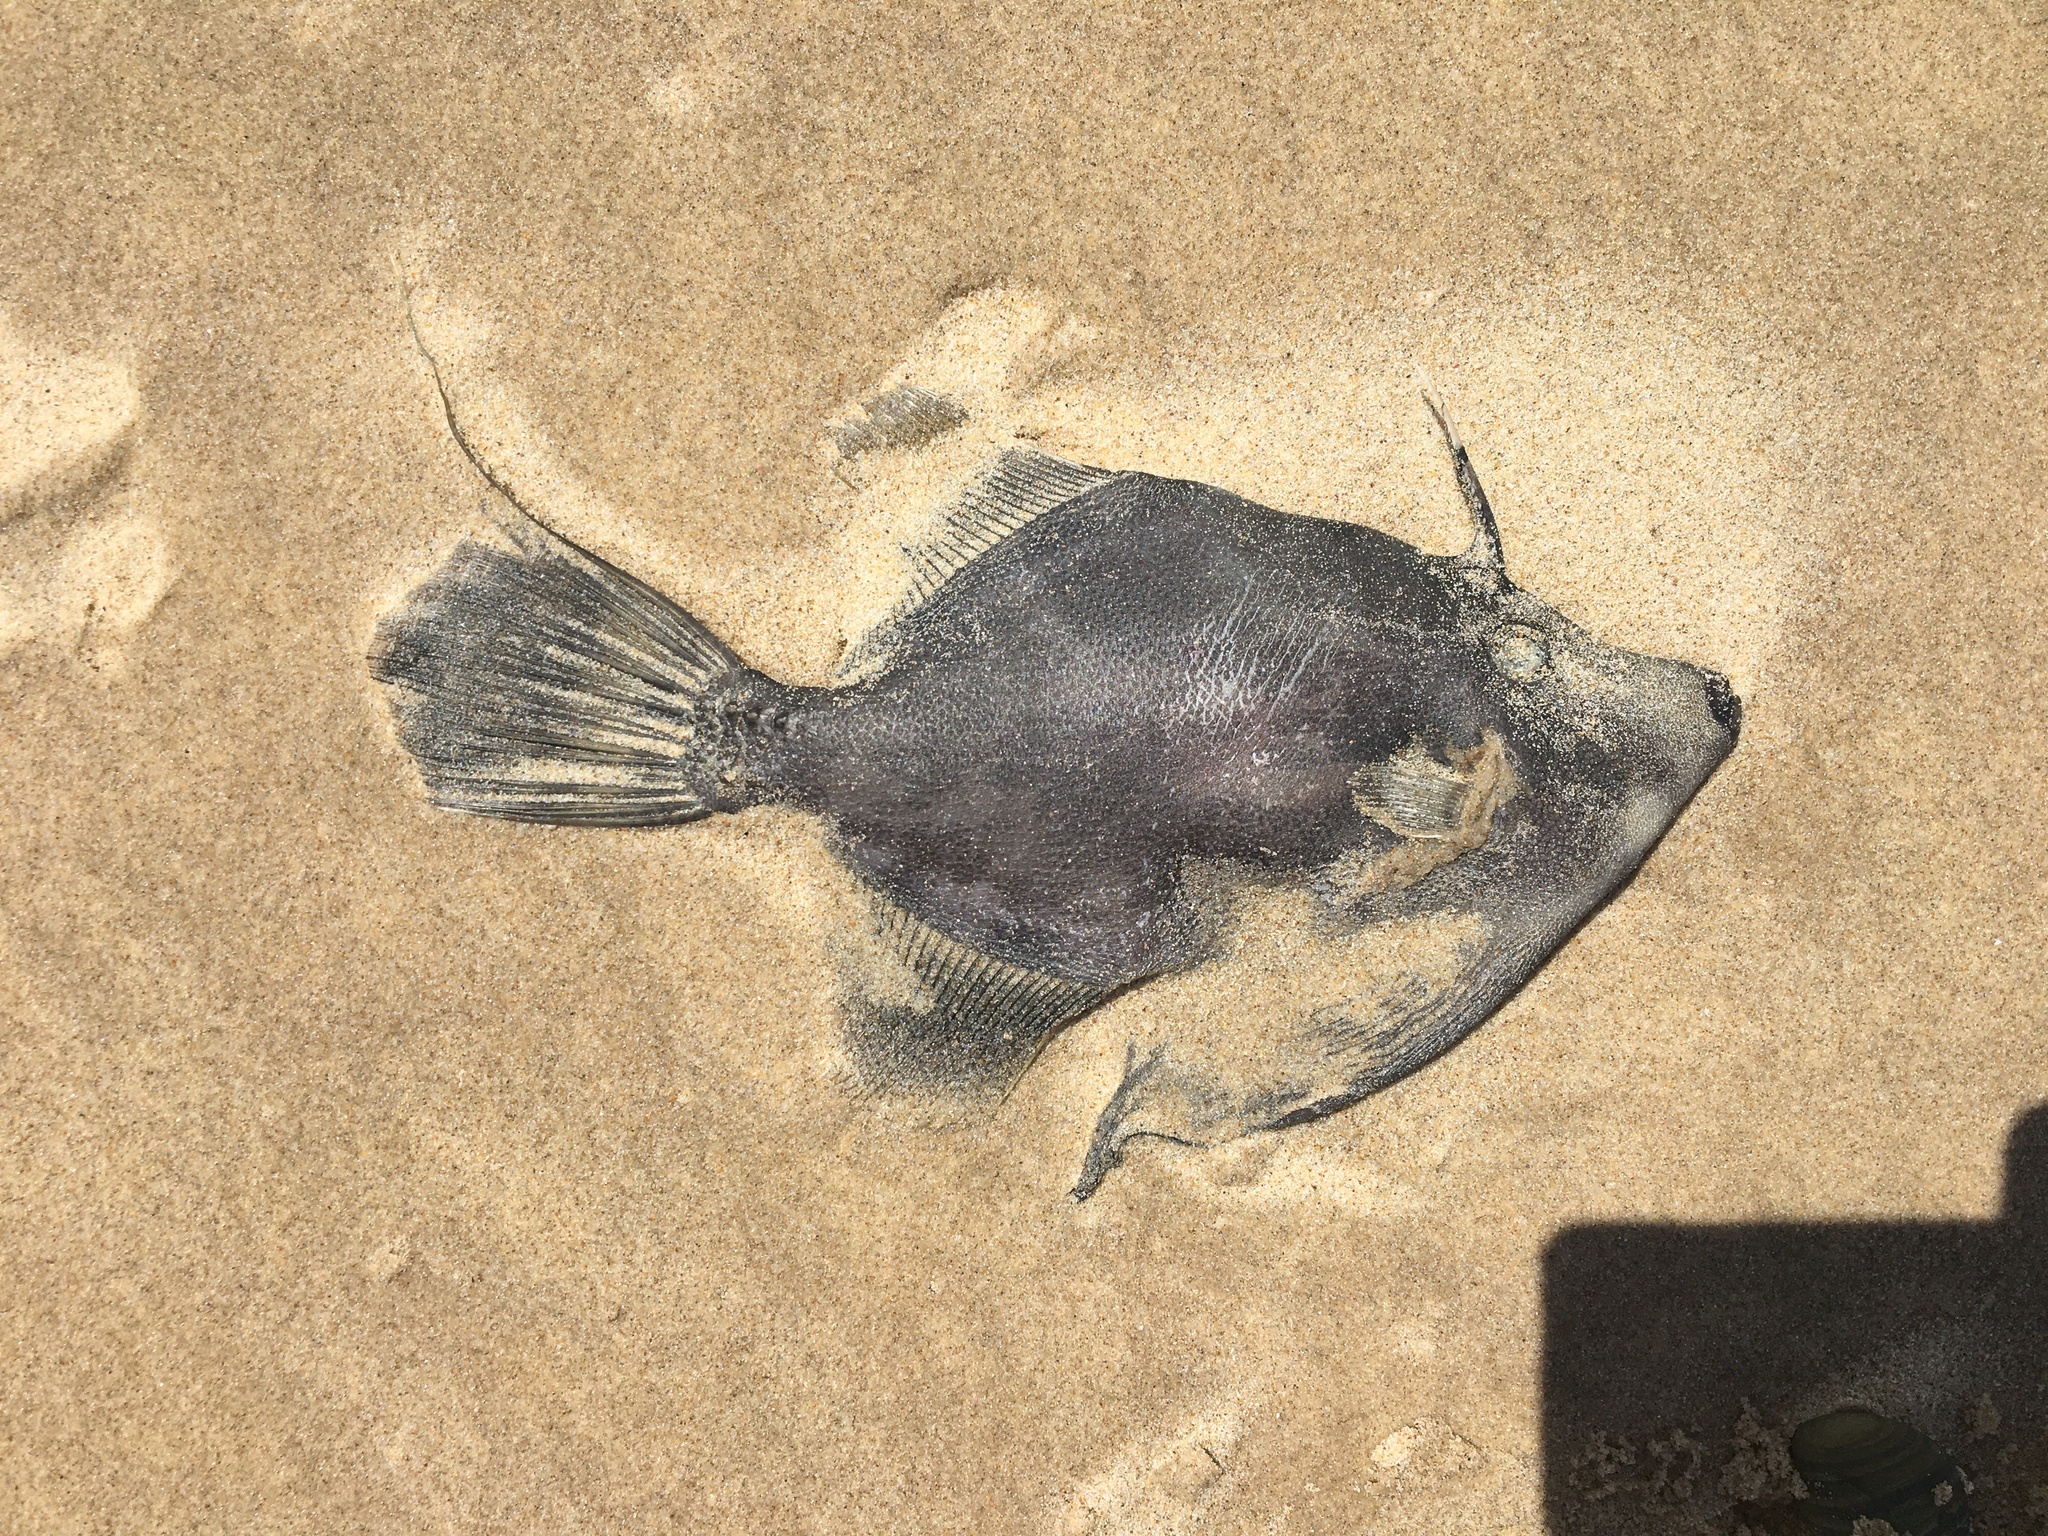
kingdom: Animalia
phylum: Chordata
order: Tetraodontiformes
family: Monacanthidae
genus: Monacanthus
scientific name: Monacanthus chinensis
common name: Centreboard leatherjacket
